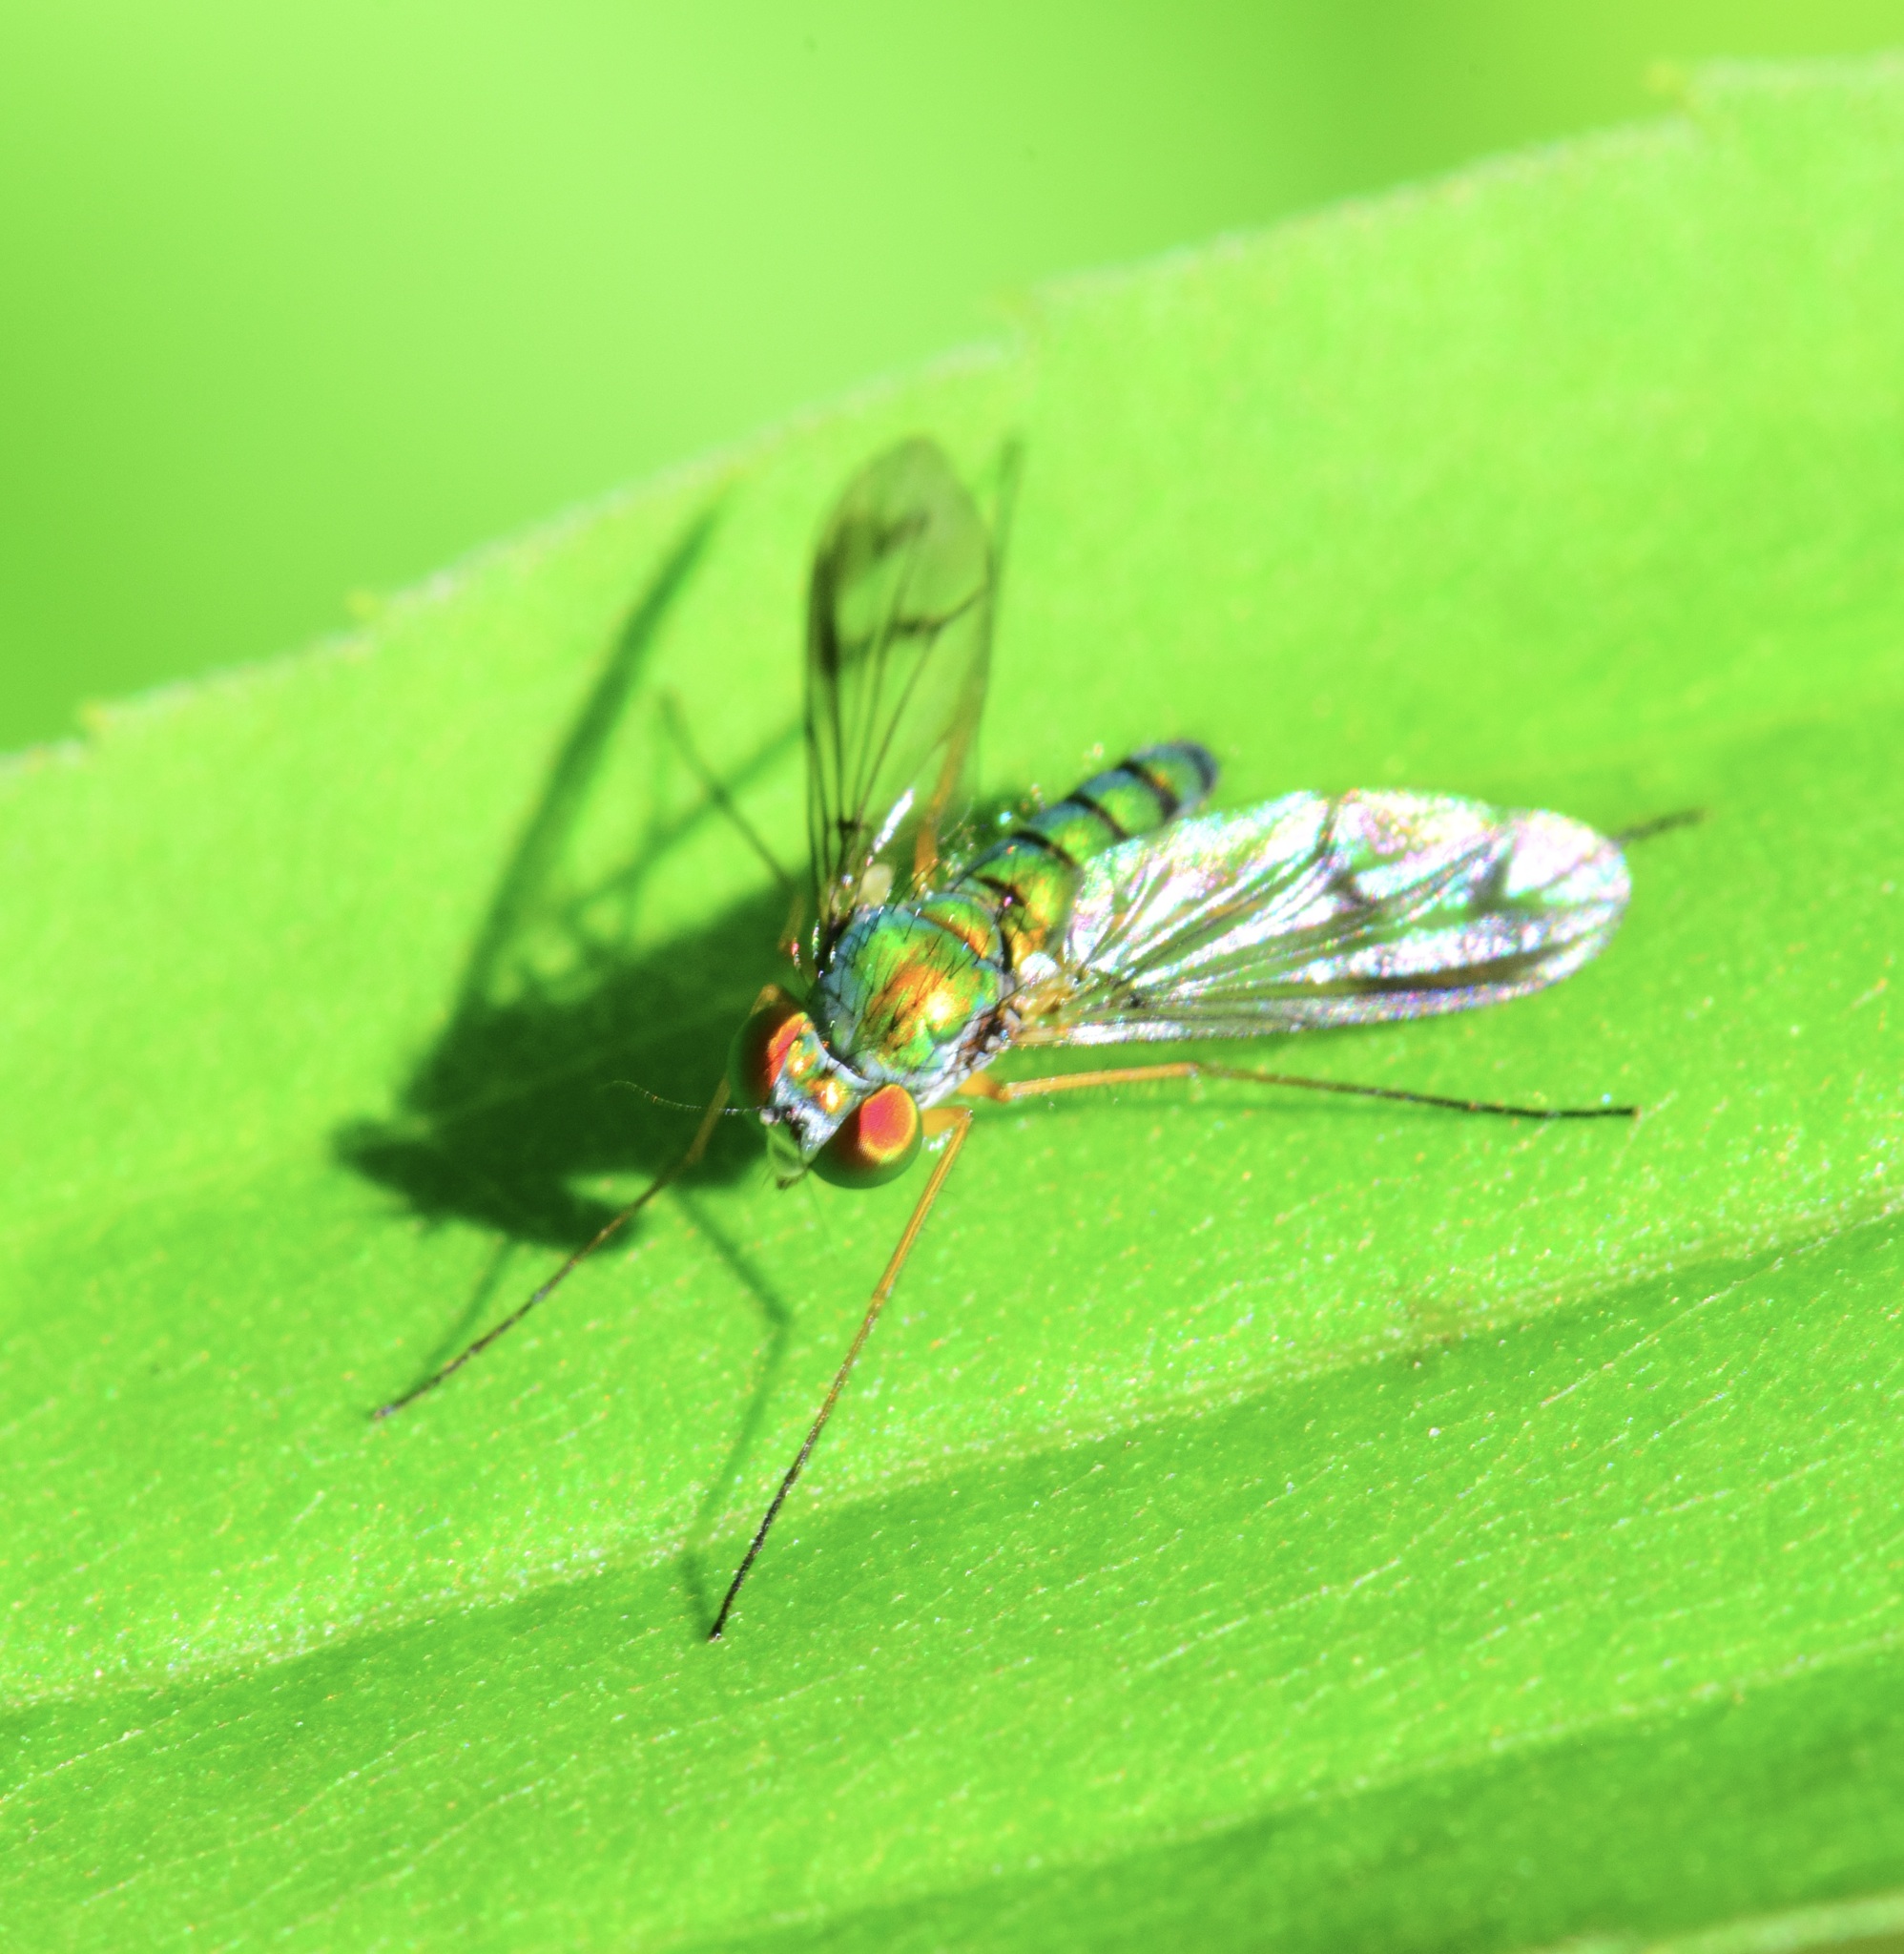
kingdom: Animalia
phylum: Arthropoda
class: Insecta
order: Diptera
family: Dolichopodidae
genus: Condylostylus
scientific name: Condylostylus sipho
